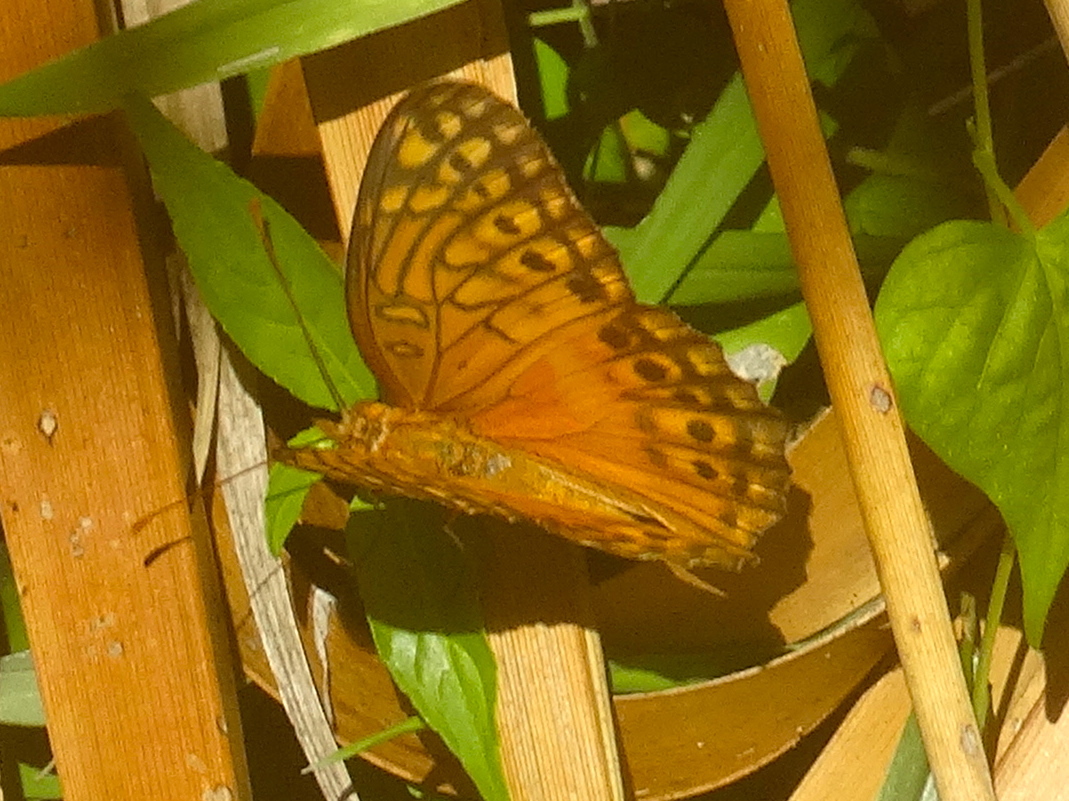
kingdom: Animalia
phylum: Arthropoda
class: Insecta
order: Lepidoptera
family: Nymphalidae
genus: Euptoieta
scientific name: Euptoieta hegesia
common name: Mexican fritillary
